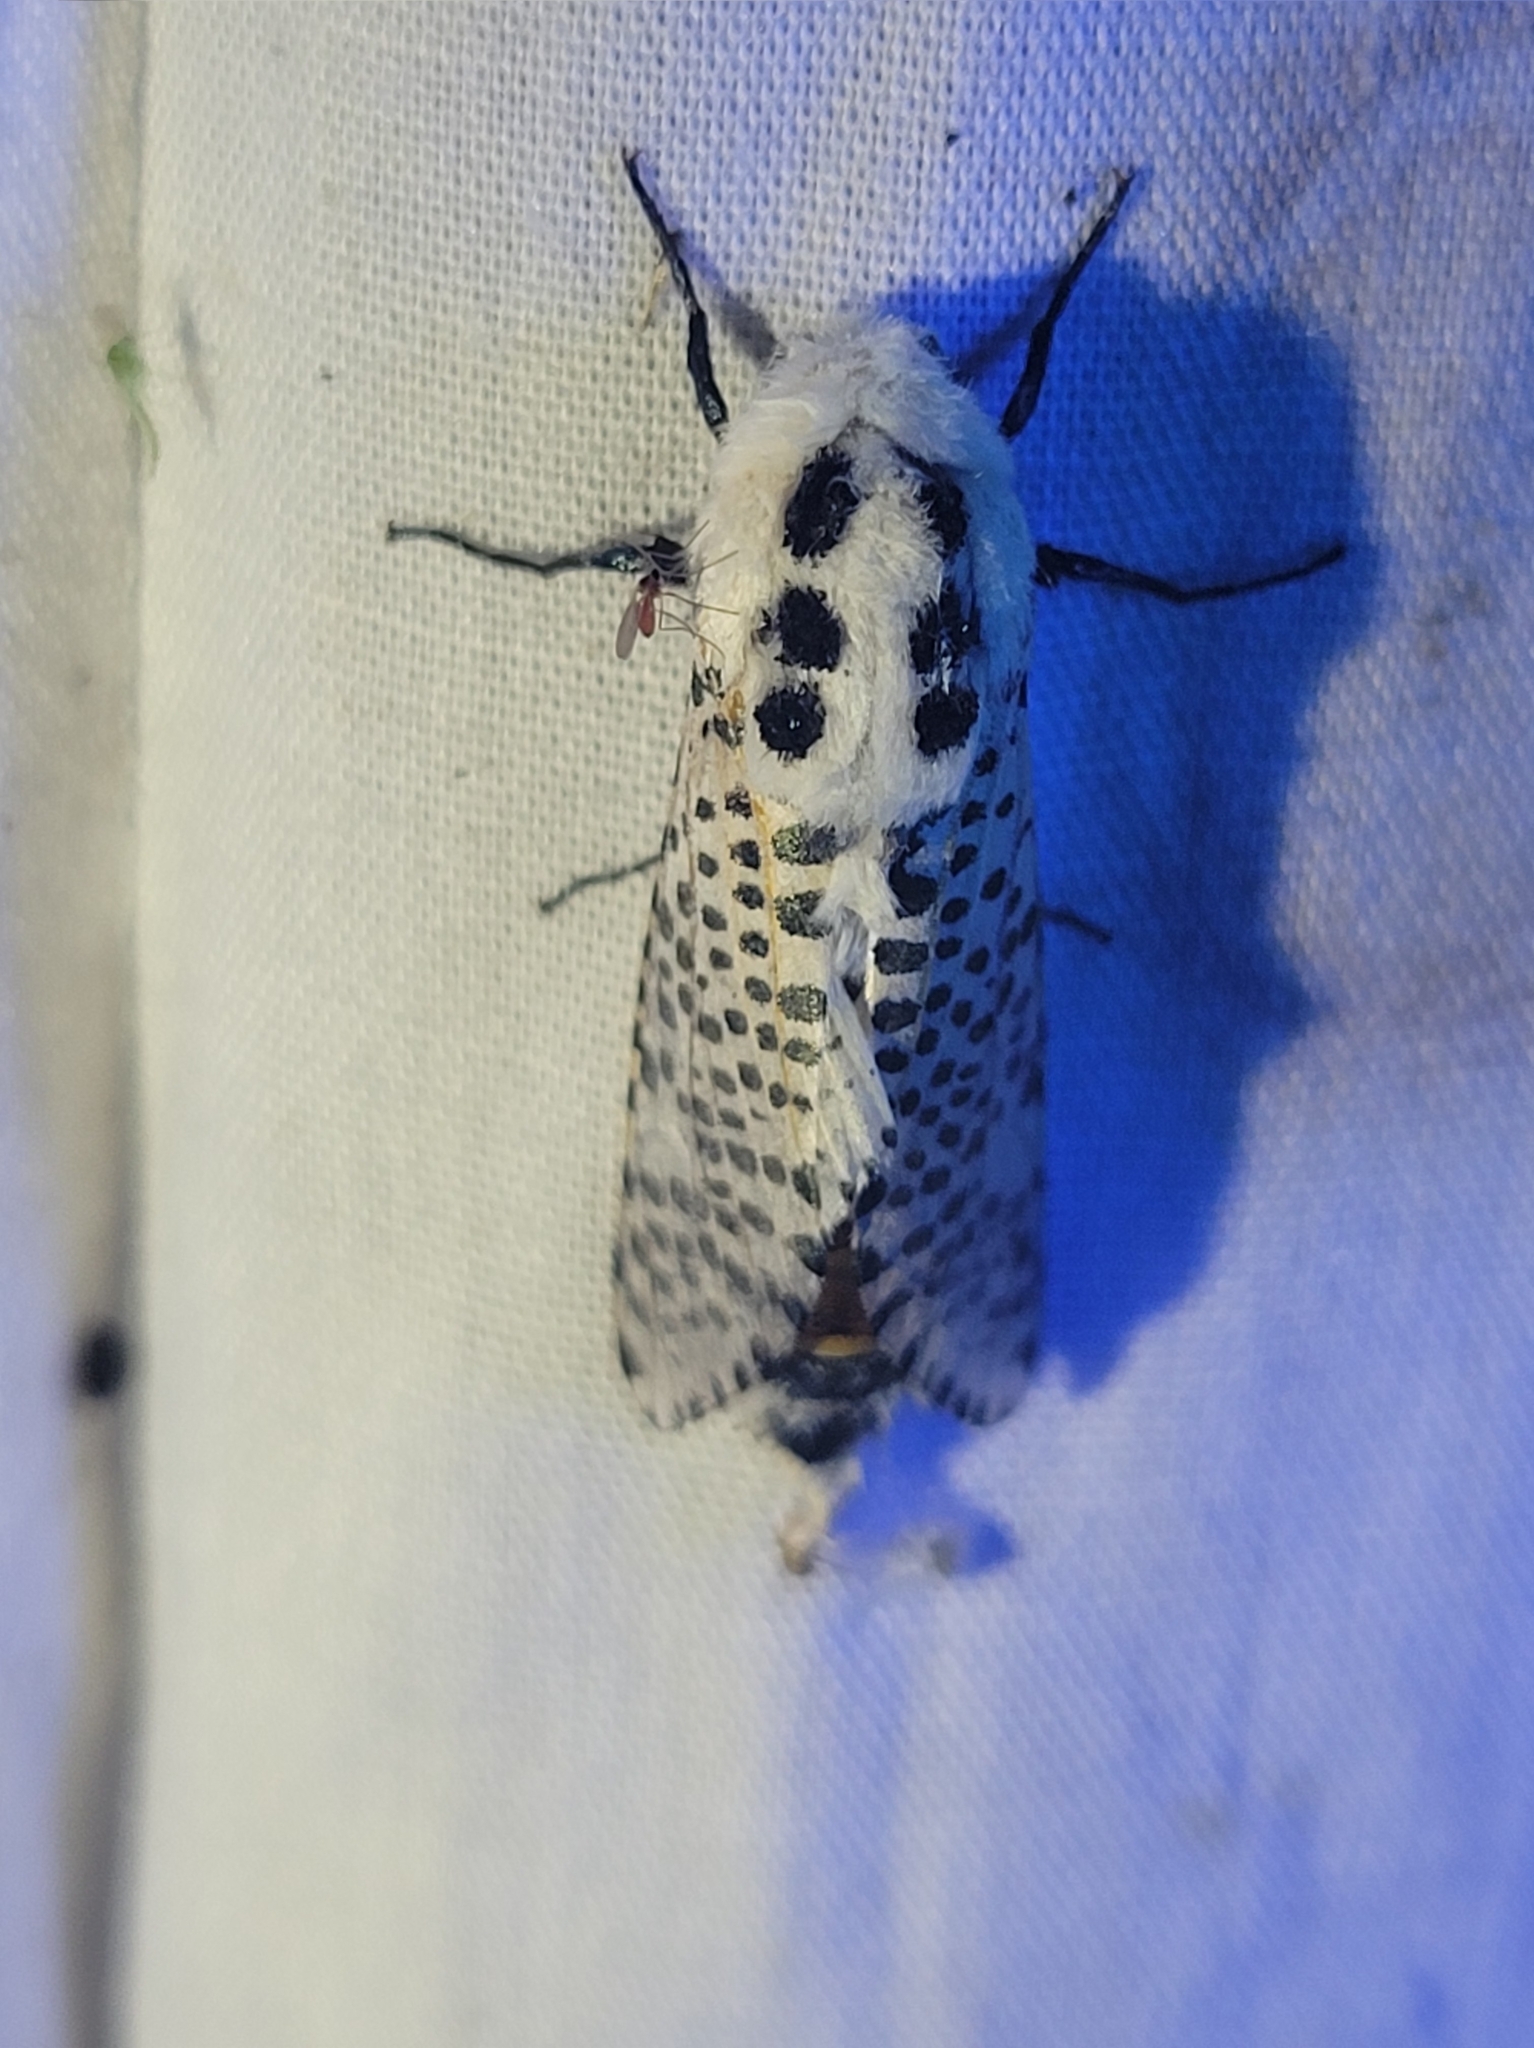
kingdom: Animalia
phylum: Arthropoda
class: Insecta
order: Lepidoptera
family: Cossidae
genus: Zeuzera
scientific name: Zeuzera pyrina
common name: Leopard moth
